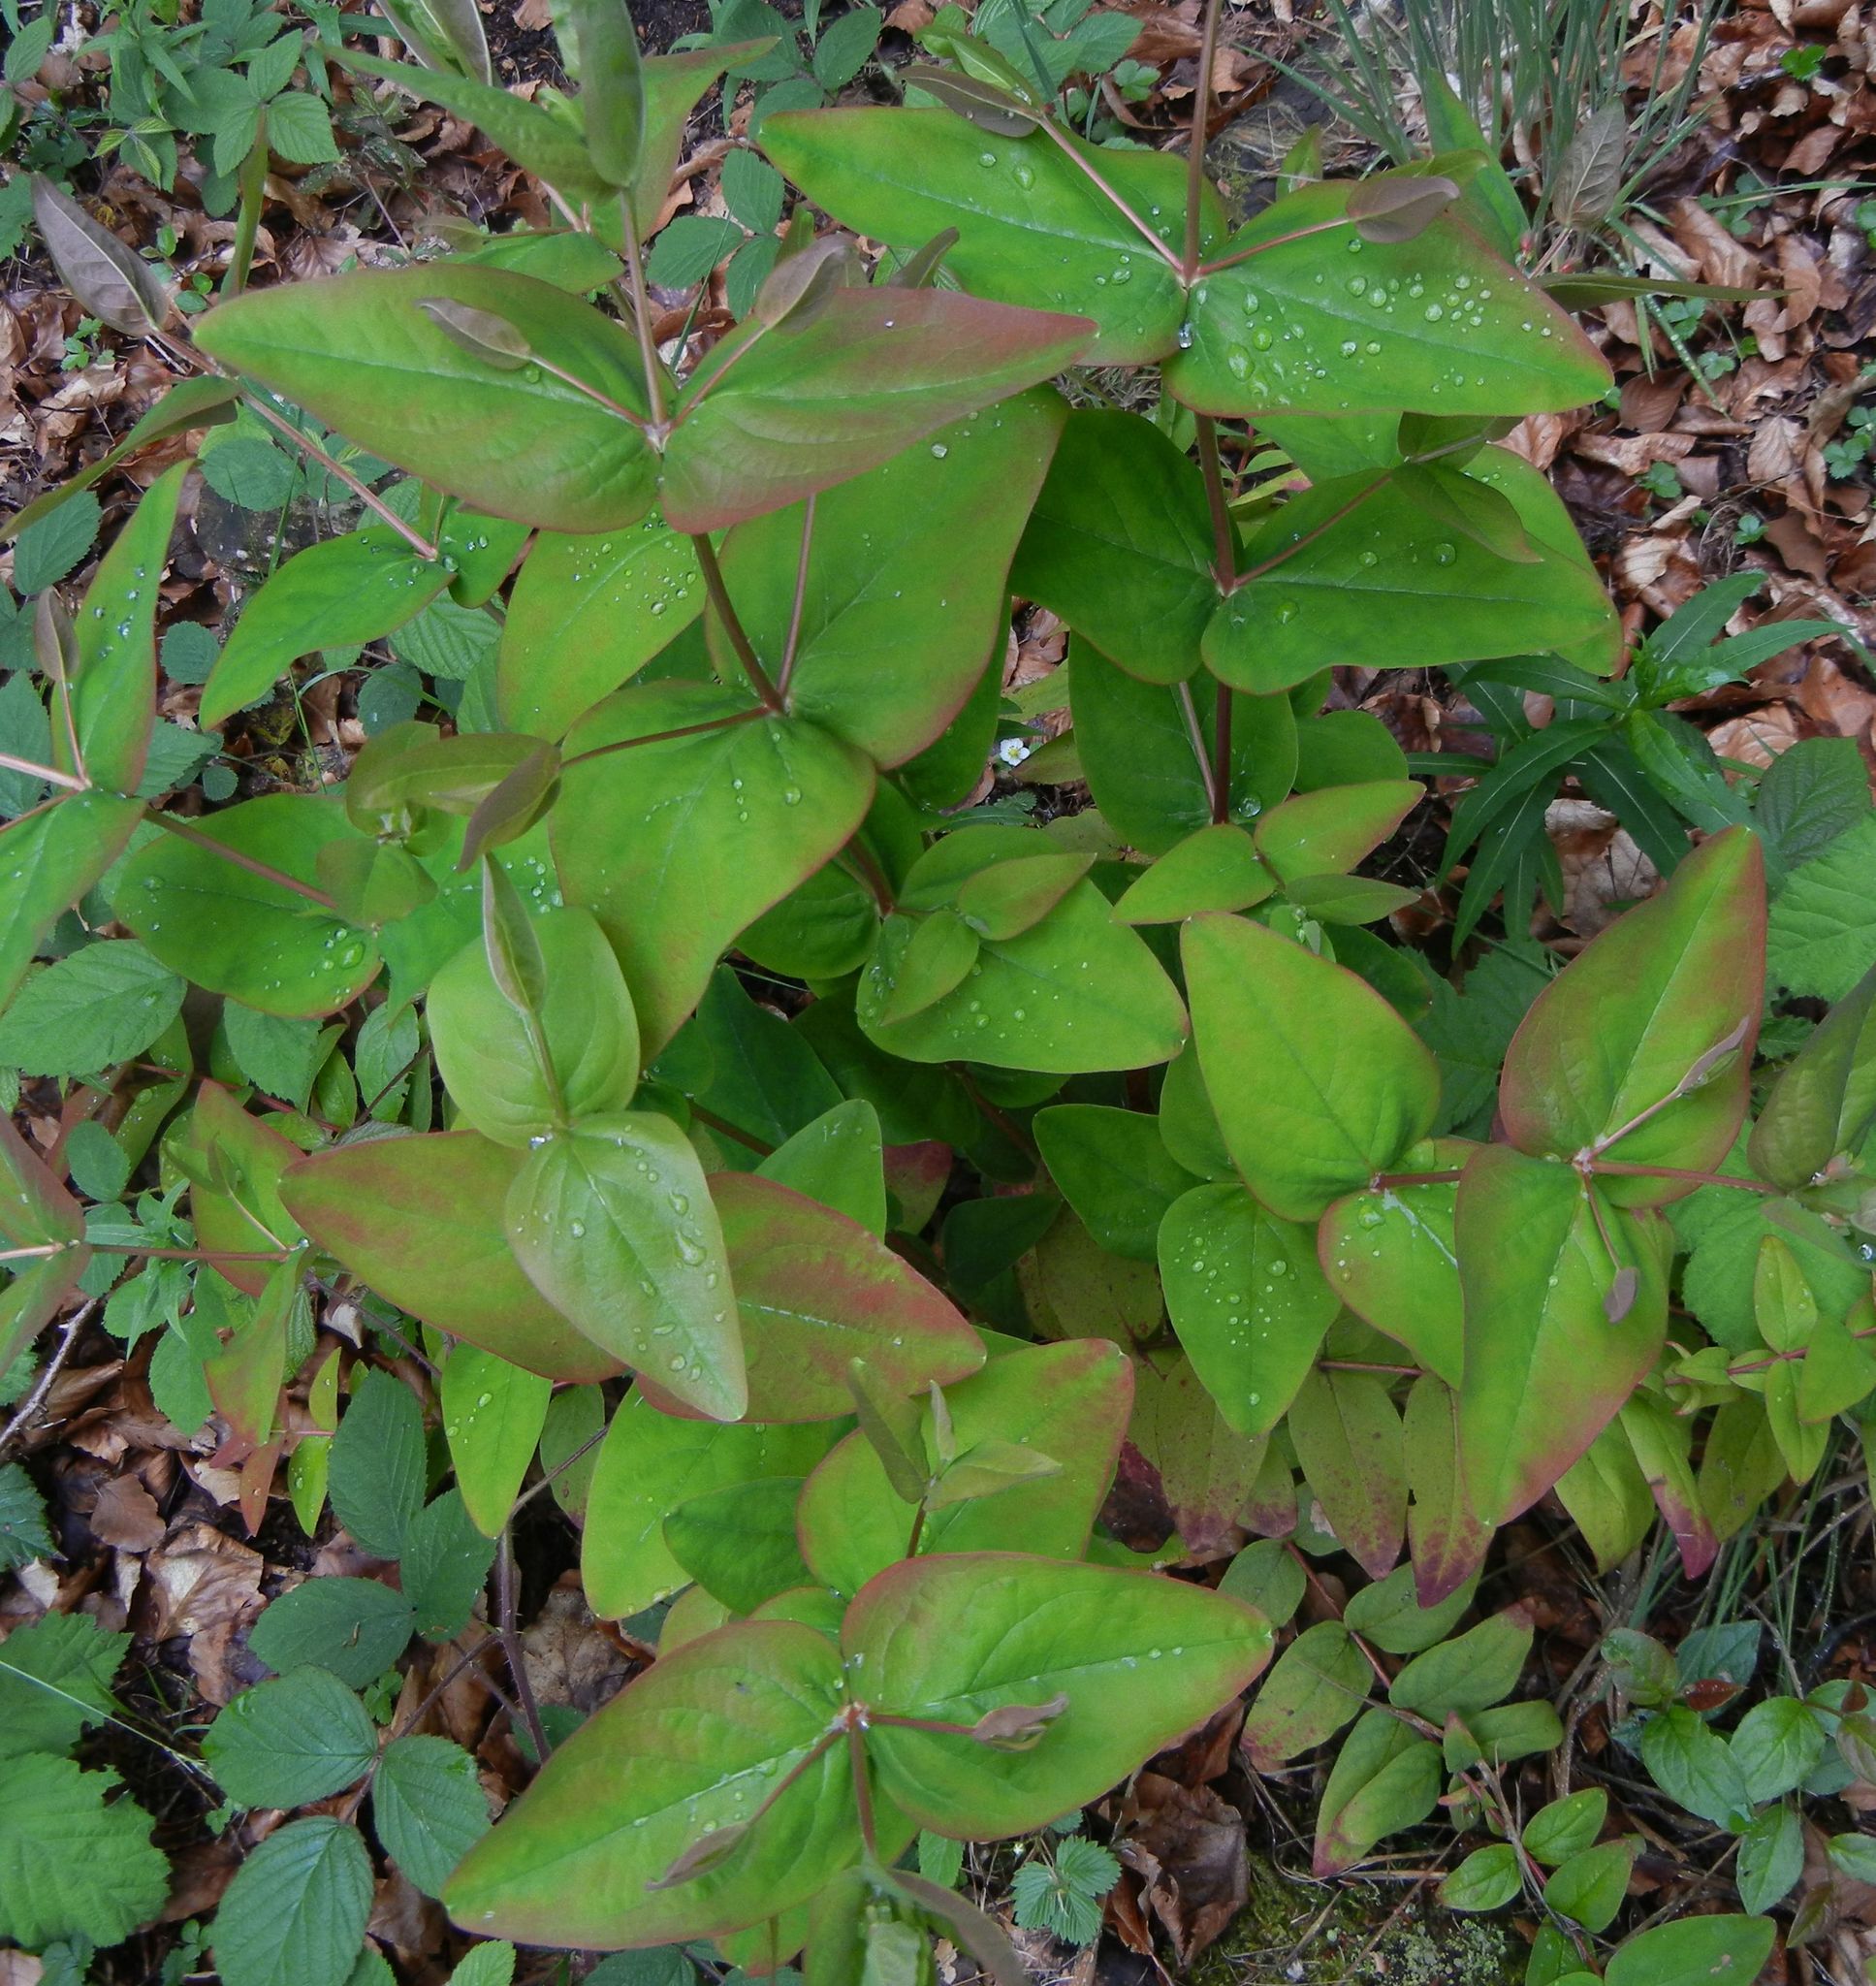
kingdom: Plantae
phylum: Tracheophyta
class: Magnoliopsida
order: Malpighiales
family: Hypericaceae
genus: Hypericum
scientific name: Hypericum androsaemum
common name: Sweet-amber
